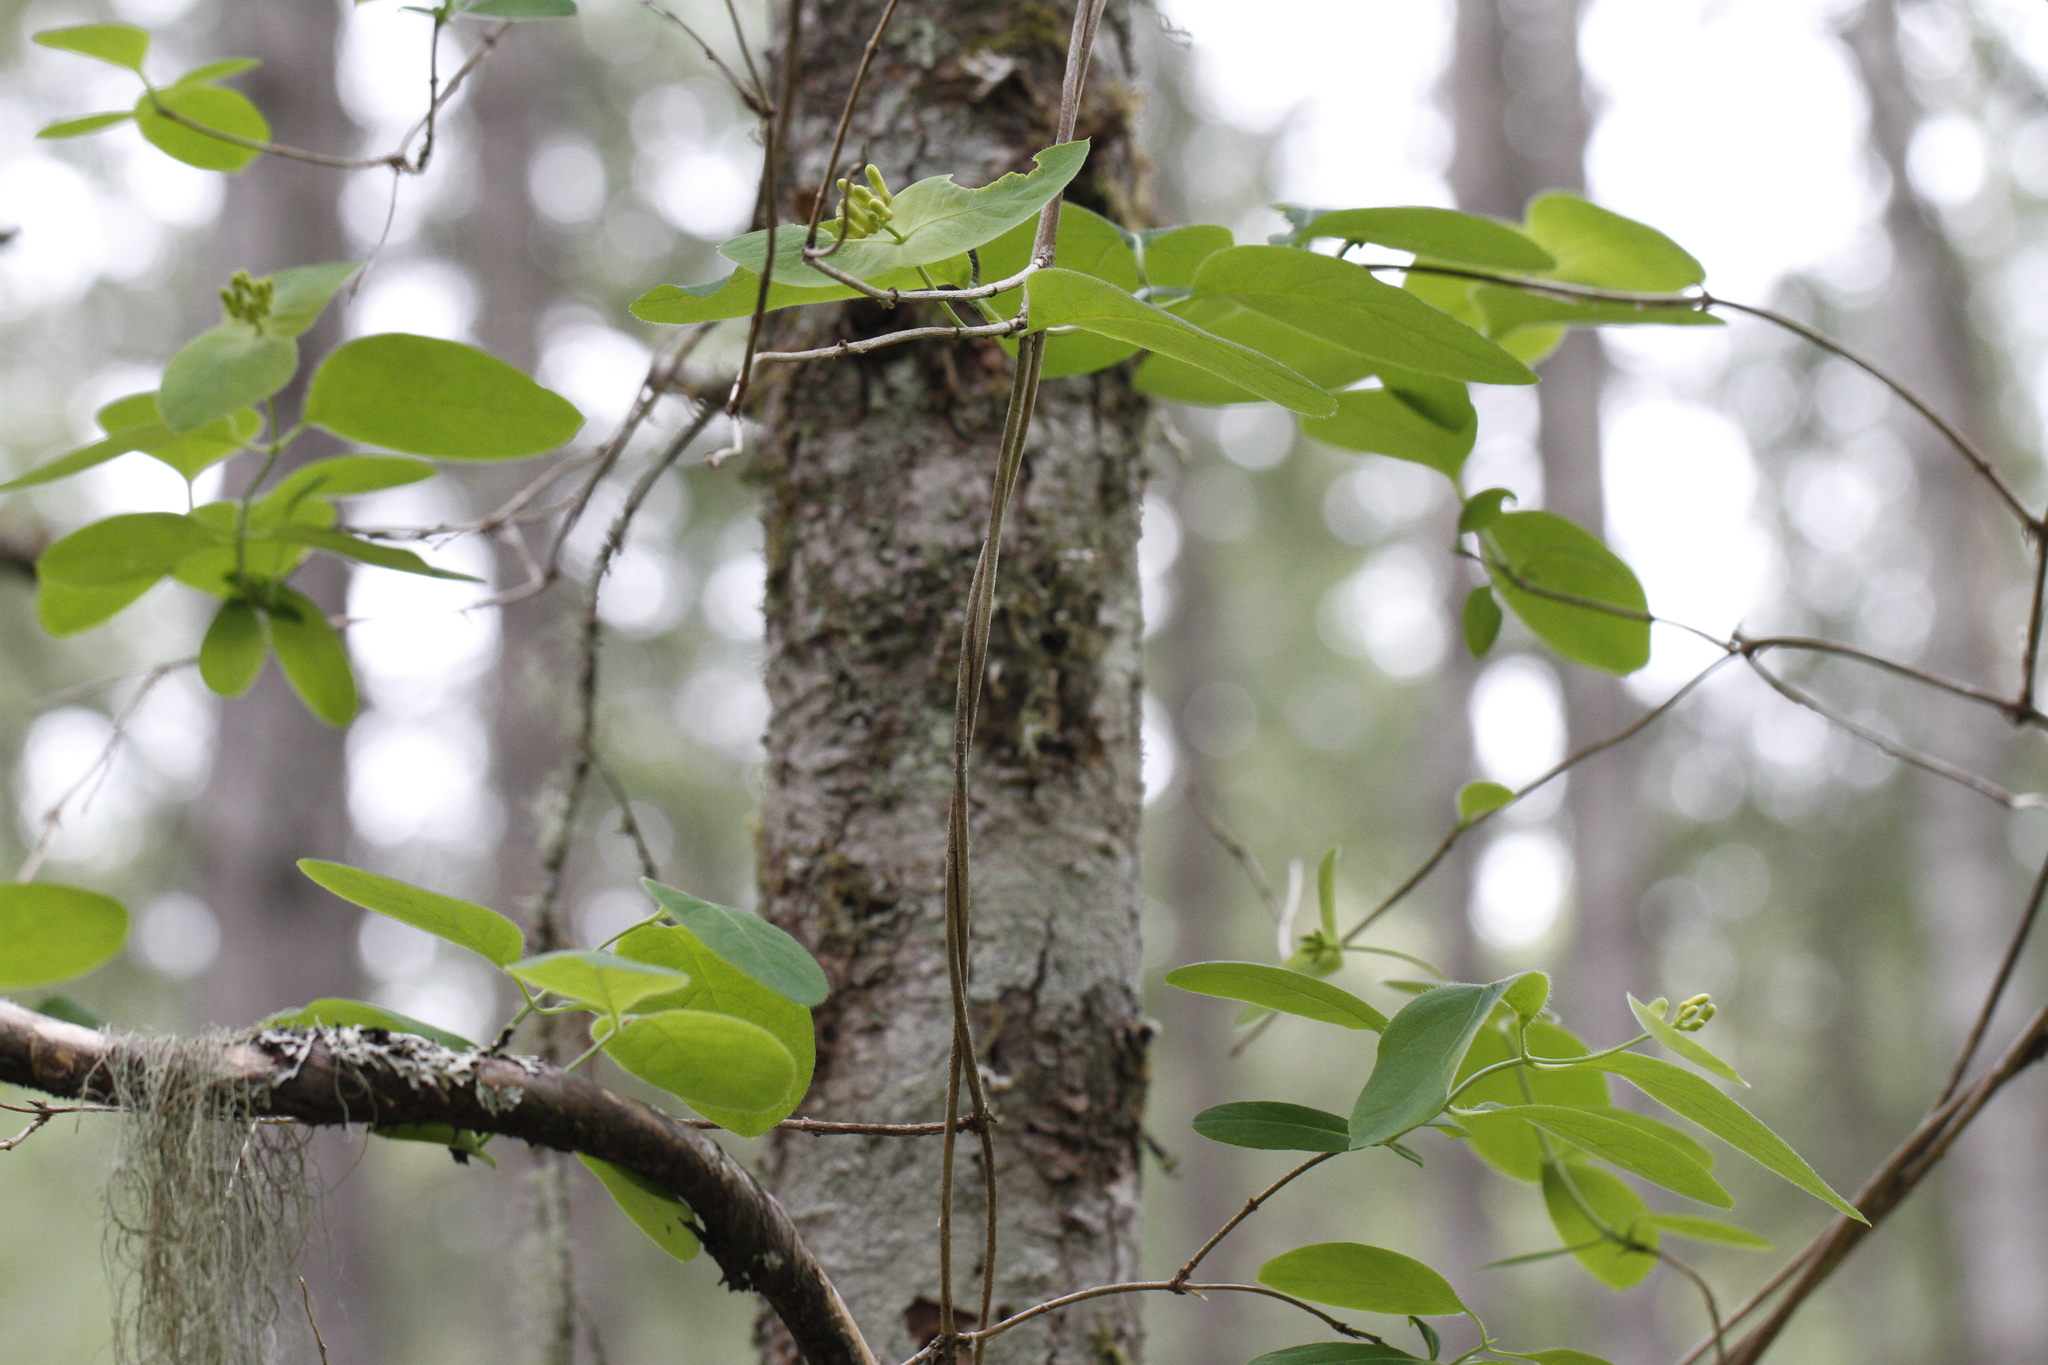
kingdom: Plantae
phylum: Tracheophyta
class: Magnoliopsida
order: Dipsacales
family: Caprifoliaceae
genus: Lonicera
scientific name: Lonicera ciliosa
